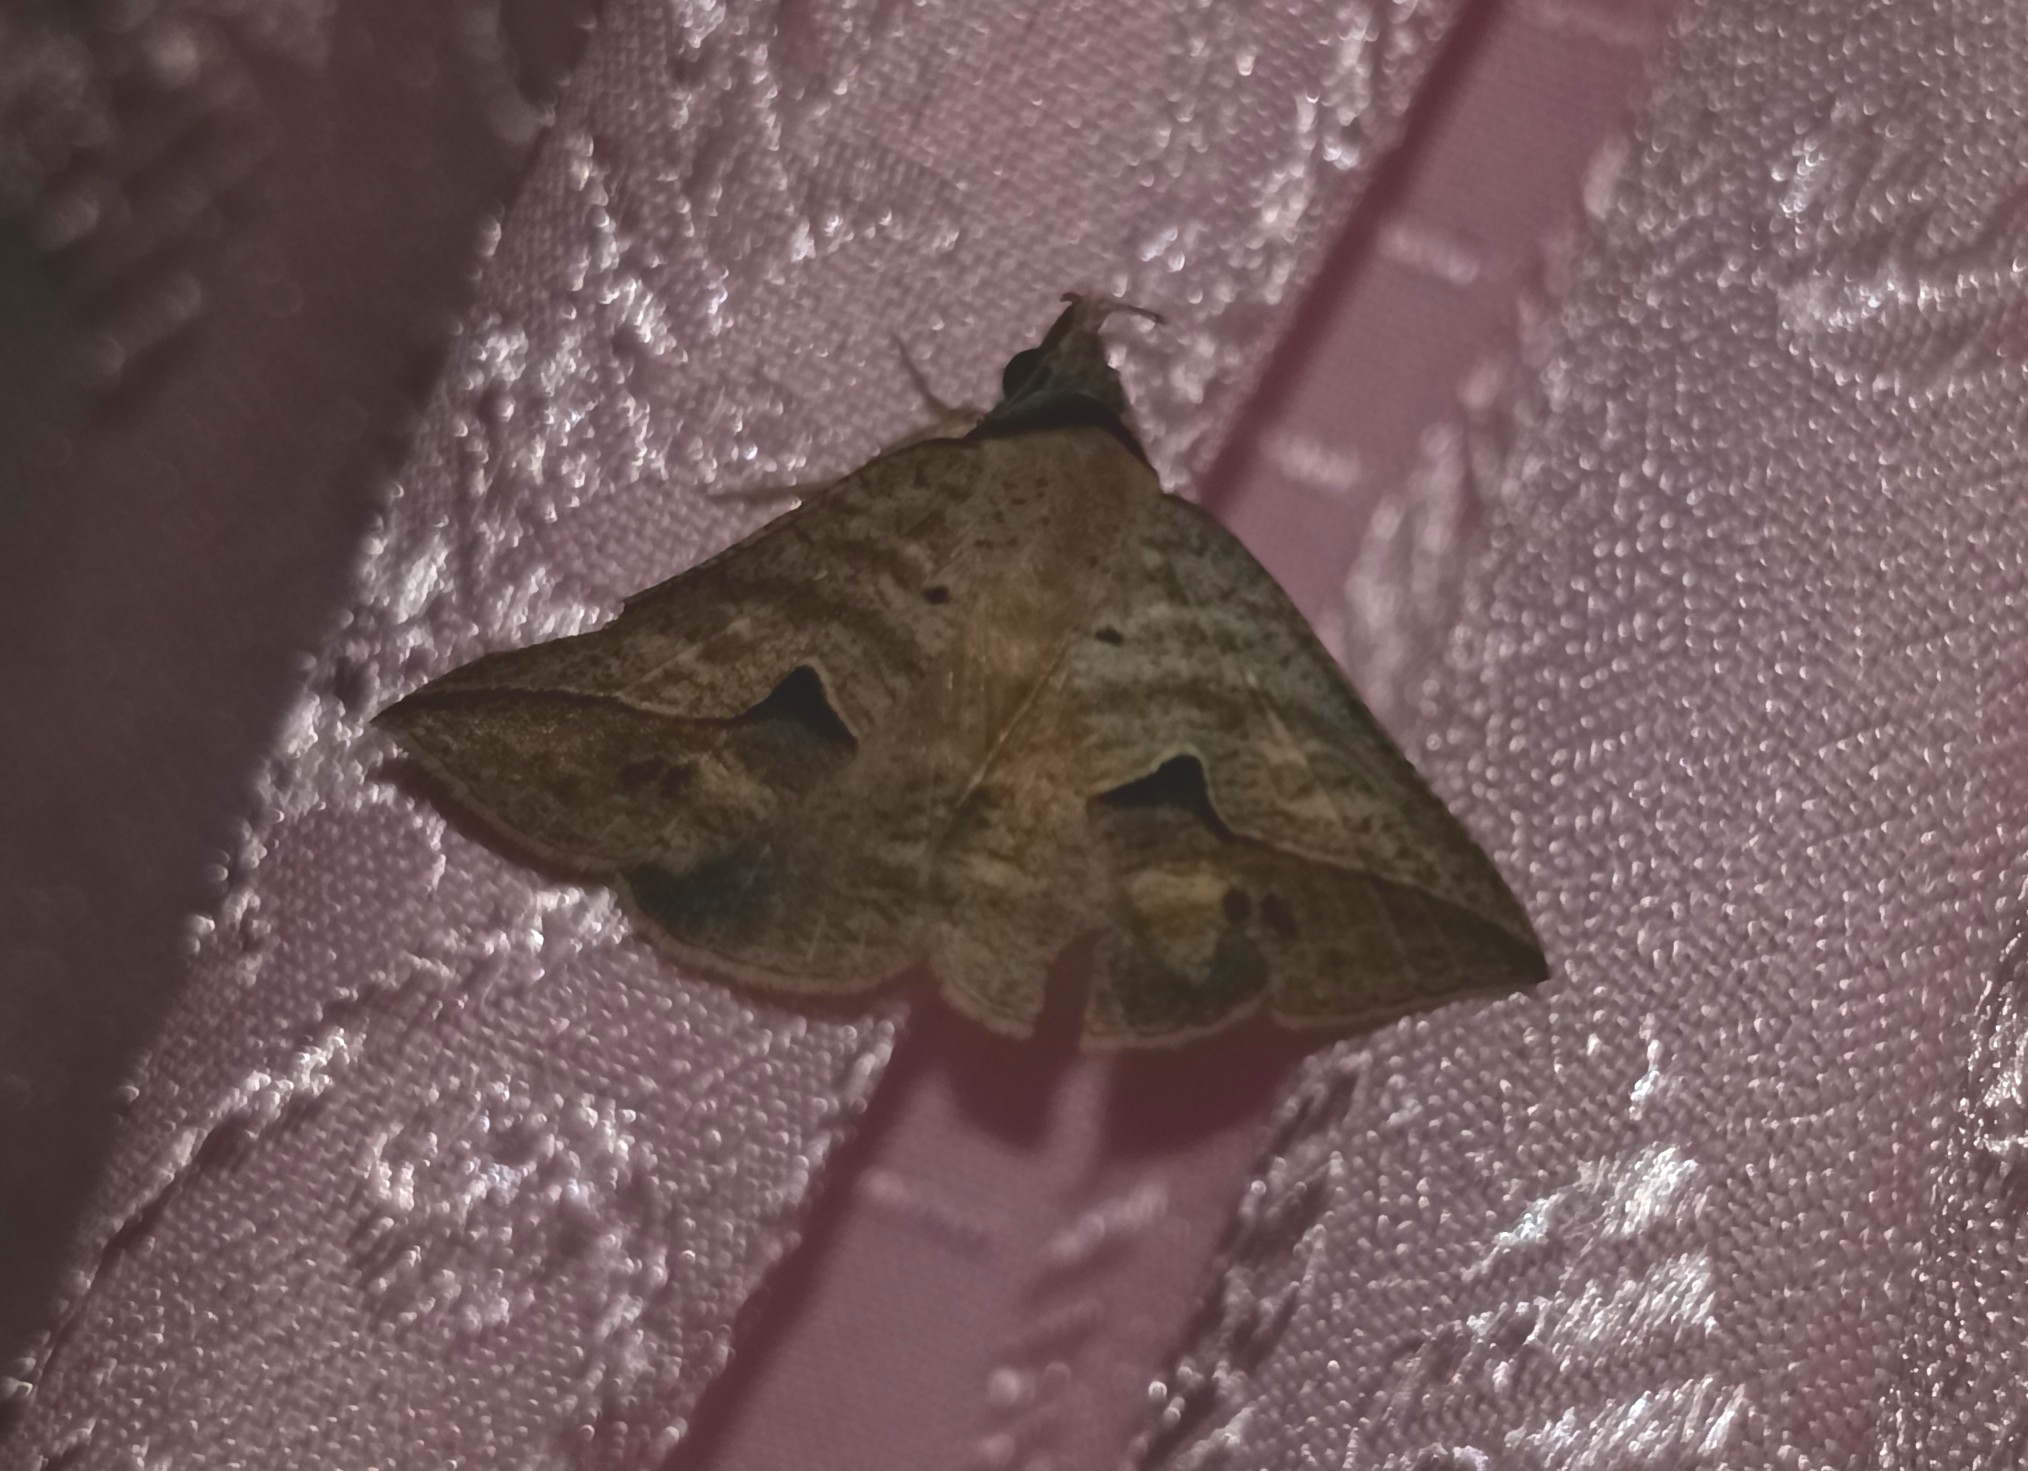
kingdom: Animalia
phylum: Arthropoda
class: Insecta
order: Lepidoptera
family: Erebidae
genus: Dierna
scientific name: Dierna patibulum
